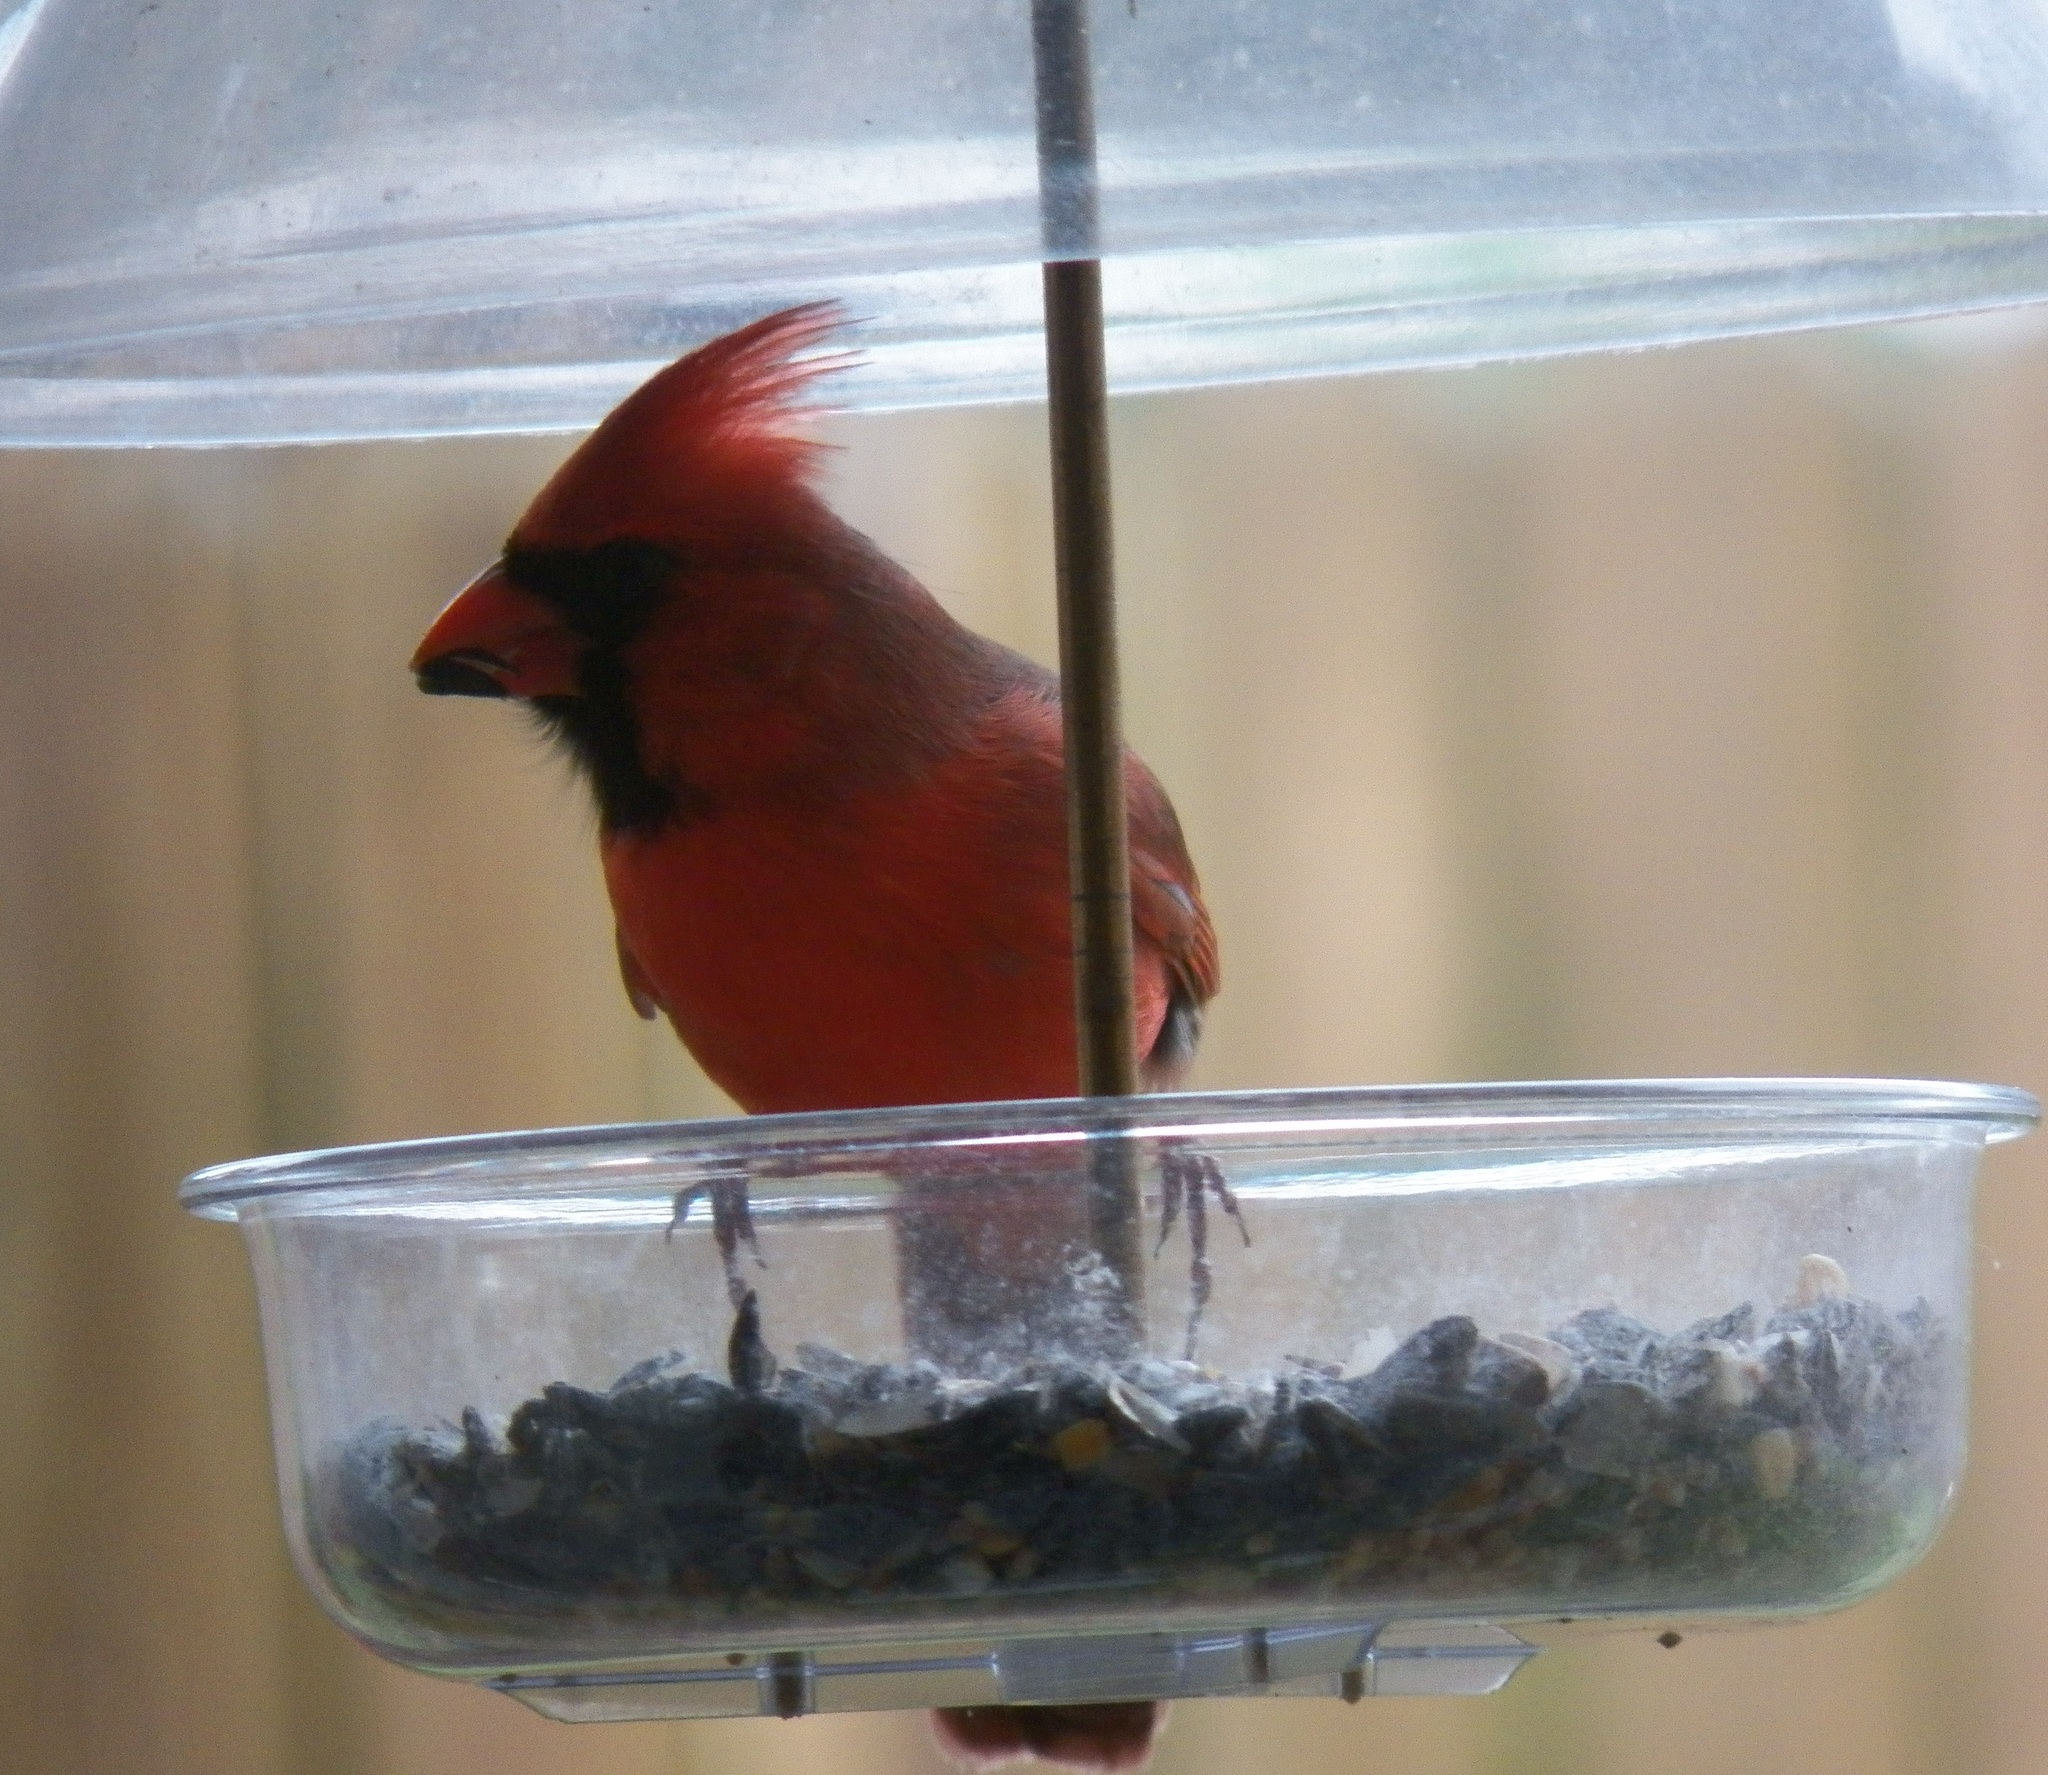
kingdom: Animalia
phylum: Chordata
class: Aves
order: Passeriformes
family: Cardinalidae
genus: Cardinalis
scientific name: Cardinalis cardinalis
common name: Northern cardinal
